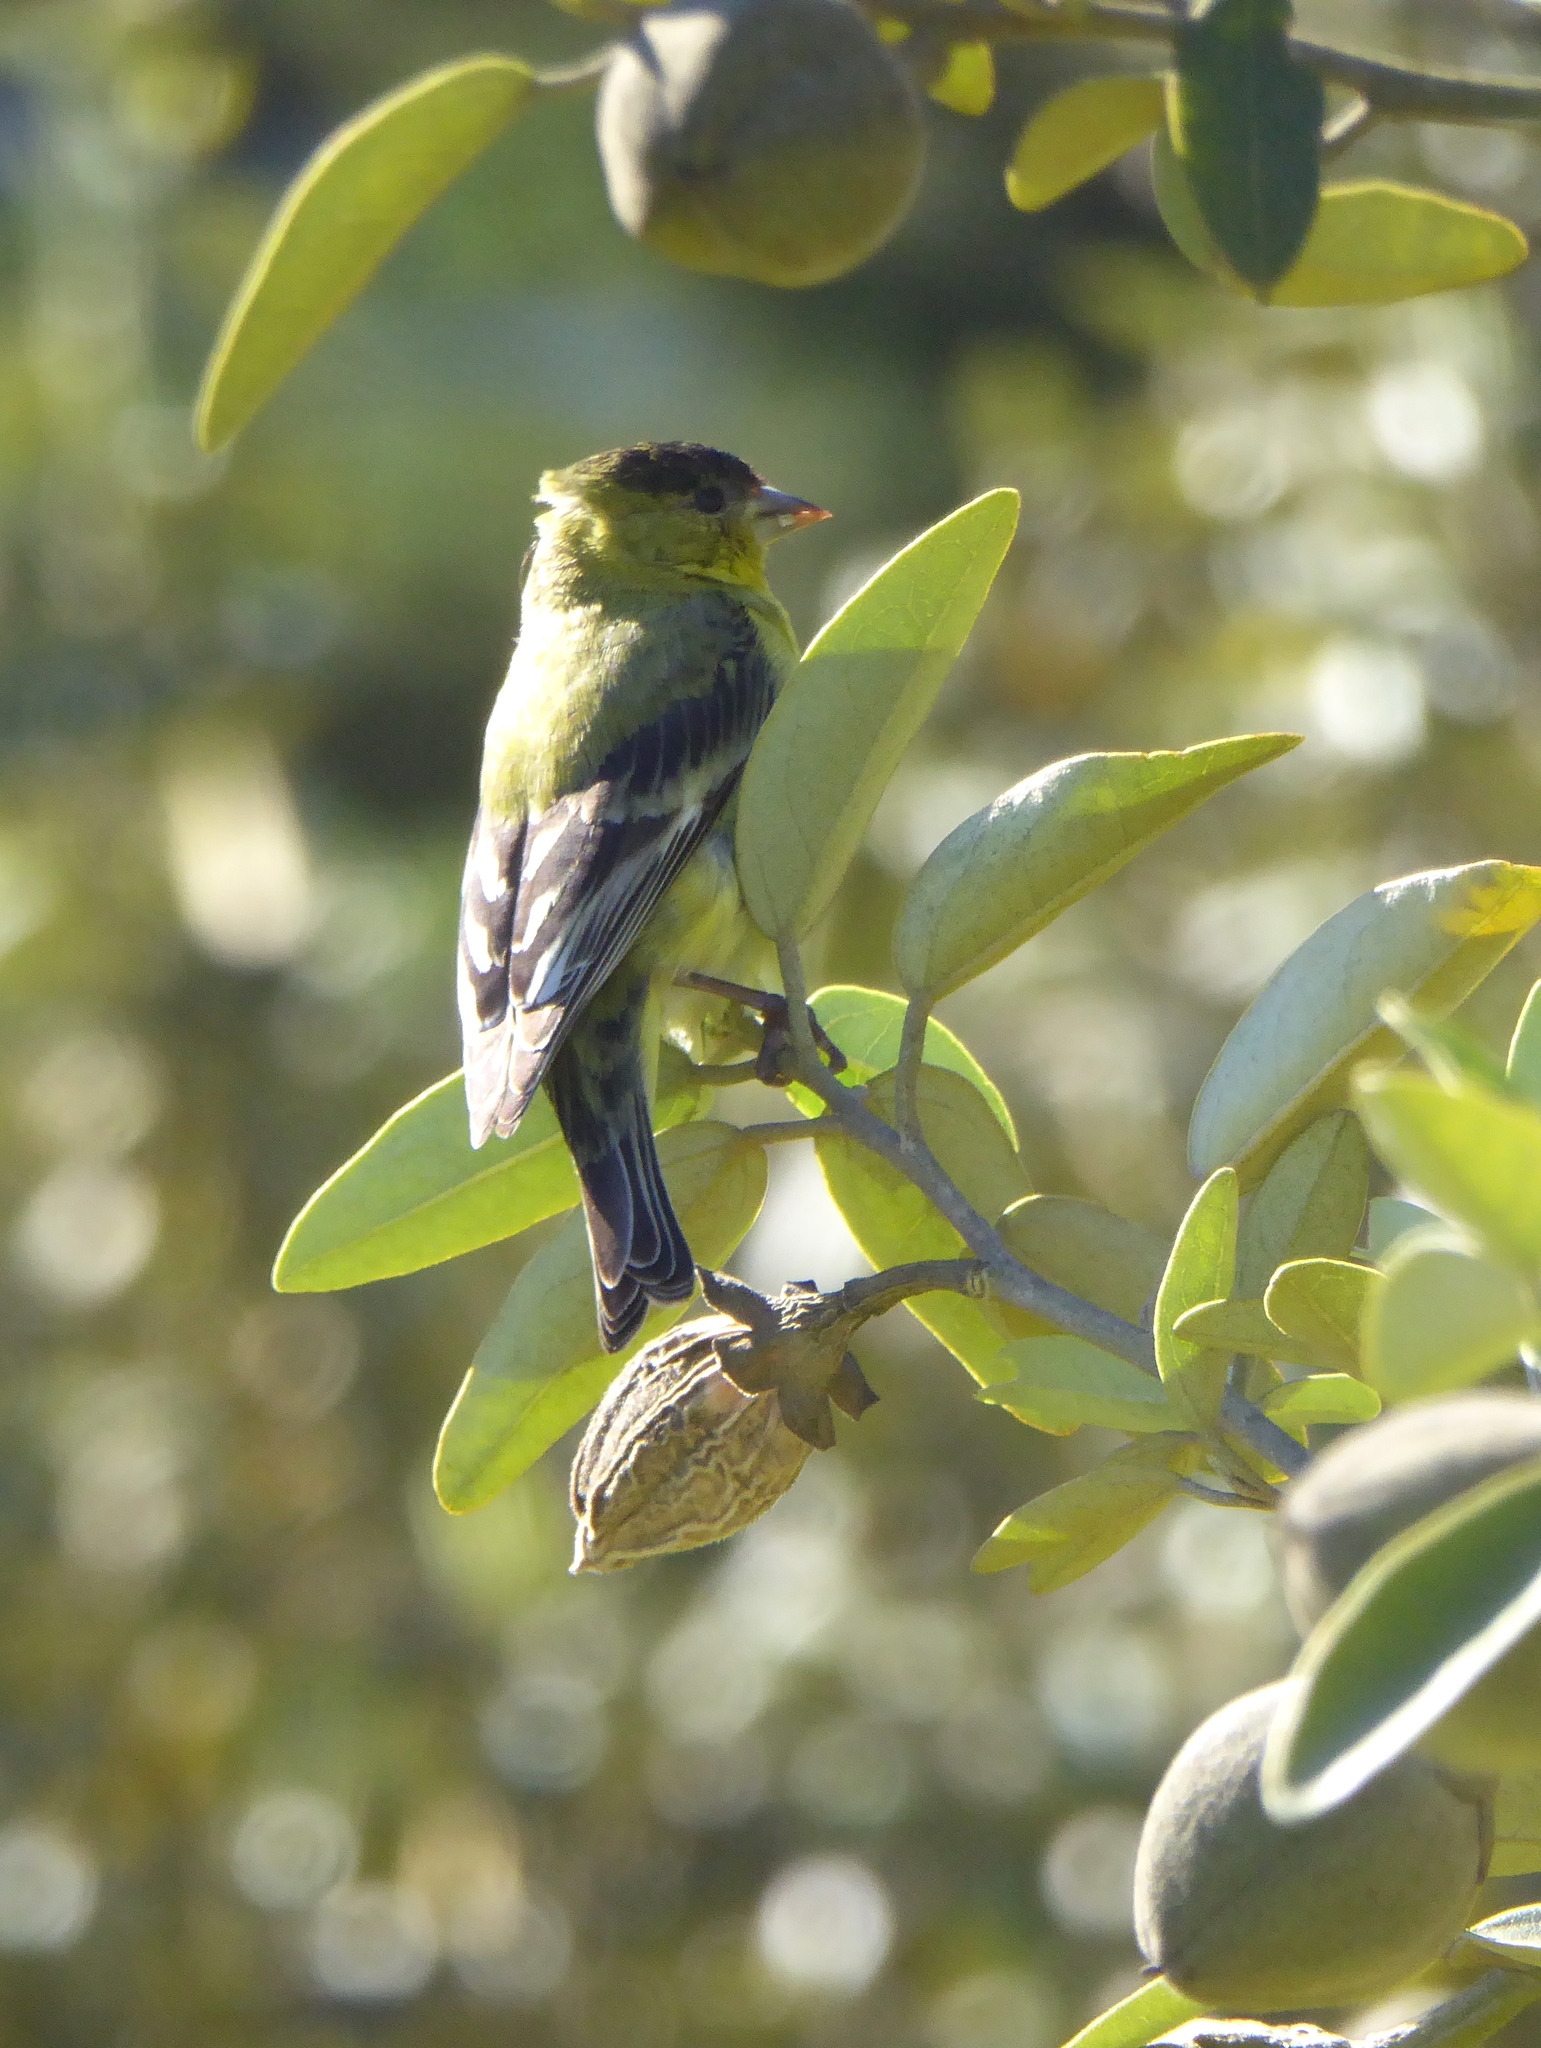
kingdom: Animalia
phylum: Chordata
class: Aves
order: Passeriformes
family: Fringillidae
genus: Spinus
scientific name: Spinus psaltria
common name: Lesser goldfinch
